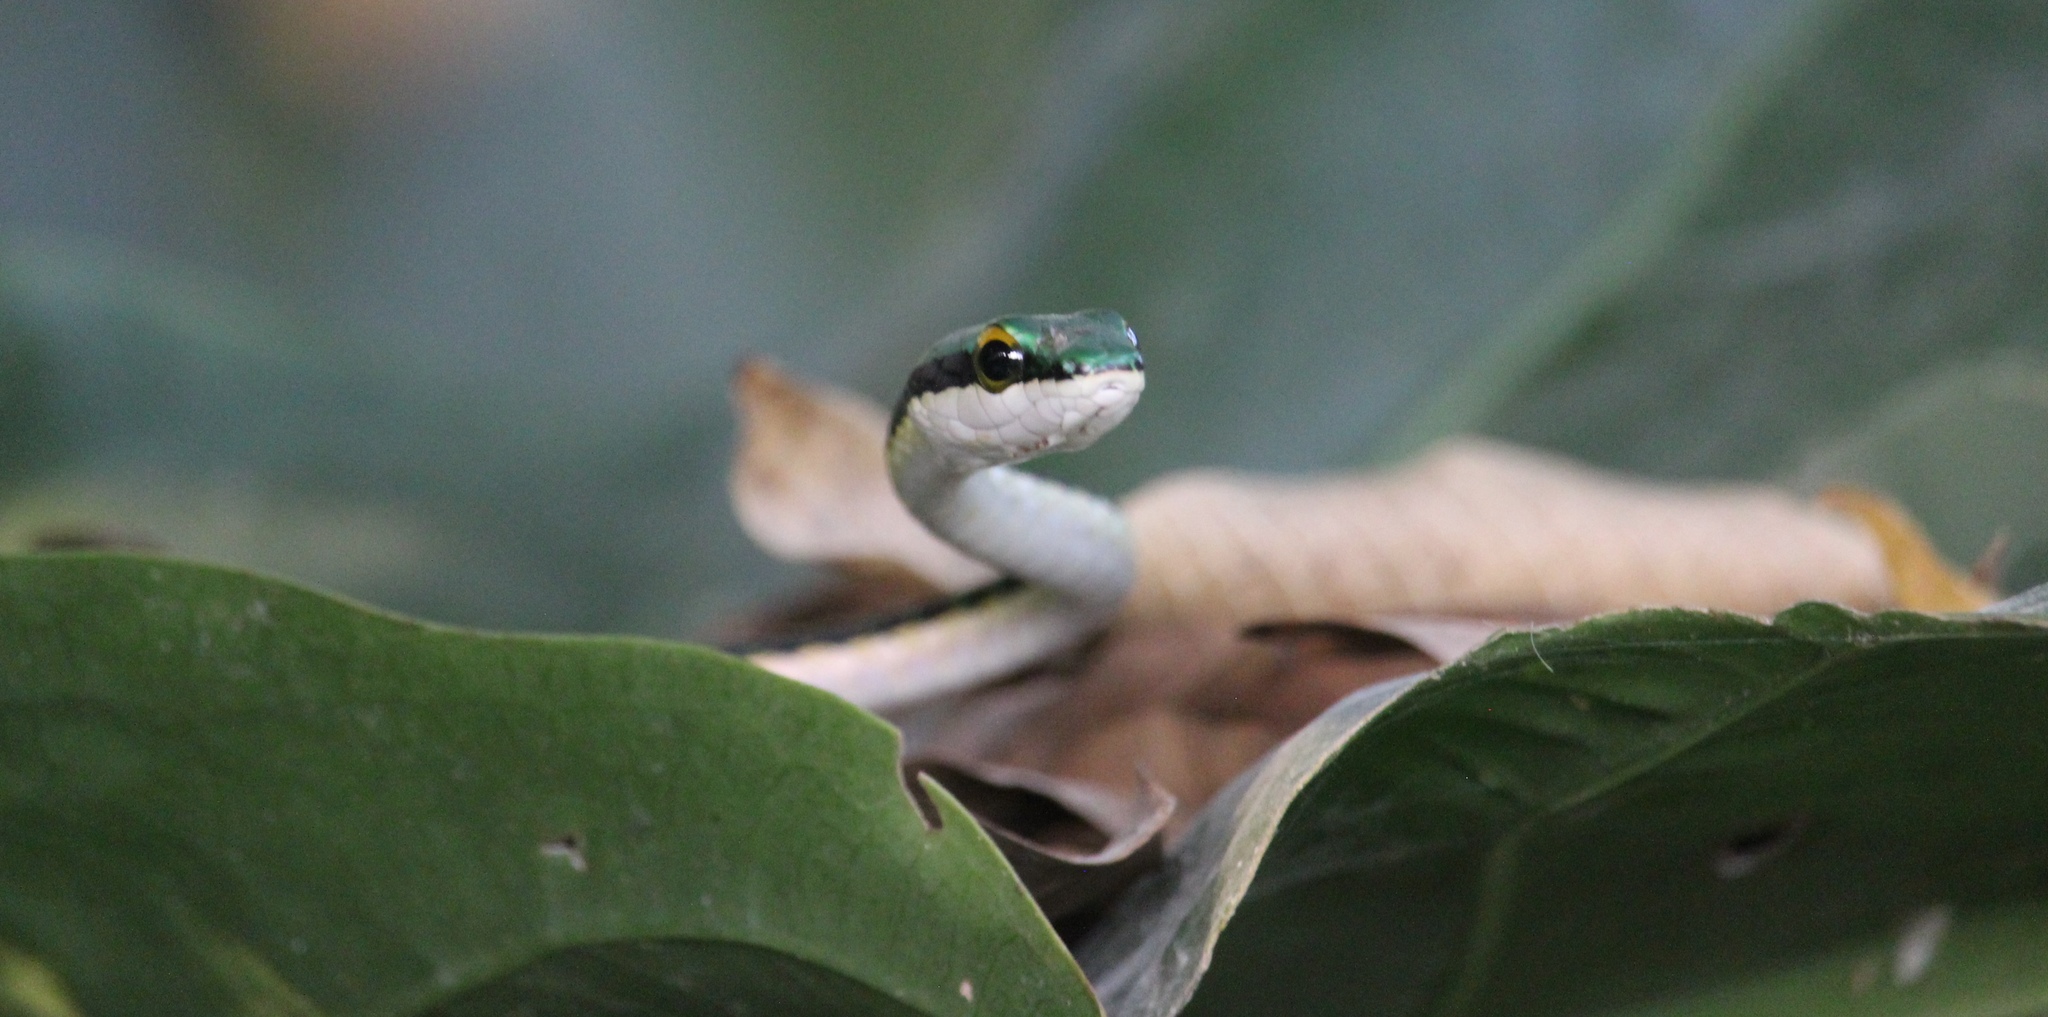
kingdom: Animalia
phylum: Chordata
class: Squamata
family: Colubridae
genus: Leptophis
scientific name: Leptophis mexicanus
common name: Mexican parrot snake
